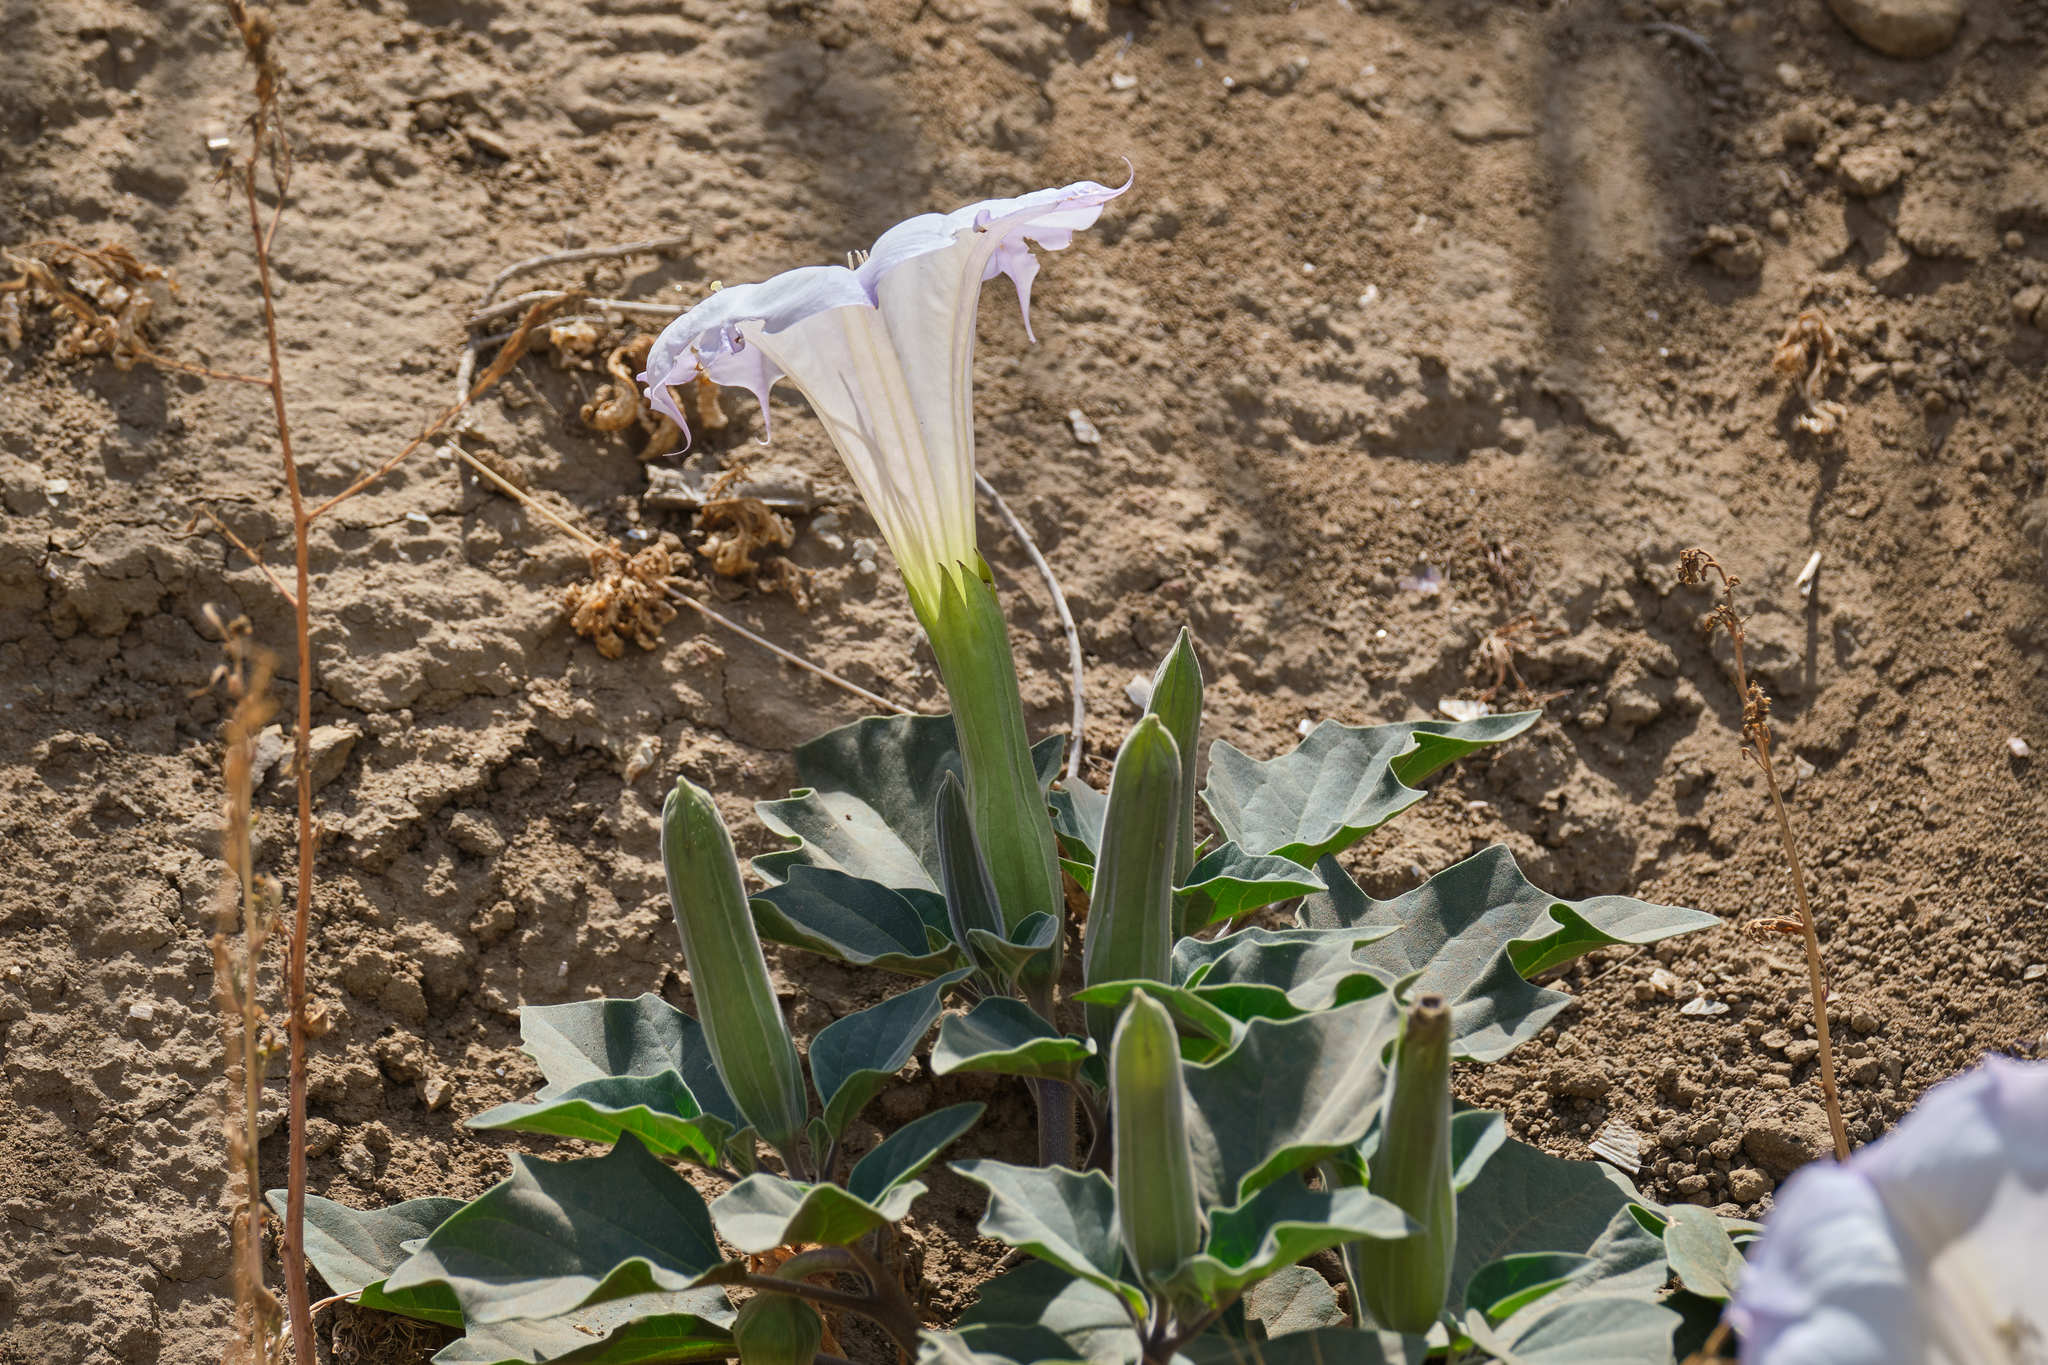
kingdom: Plantae
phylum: Tracheophyta
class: Magnoliopsida
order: Solanales
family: Solanaceae
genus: Datura
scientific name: Datura wrightii
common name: Sacred thorn-apple
